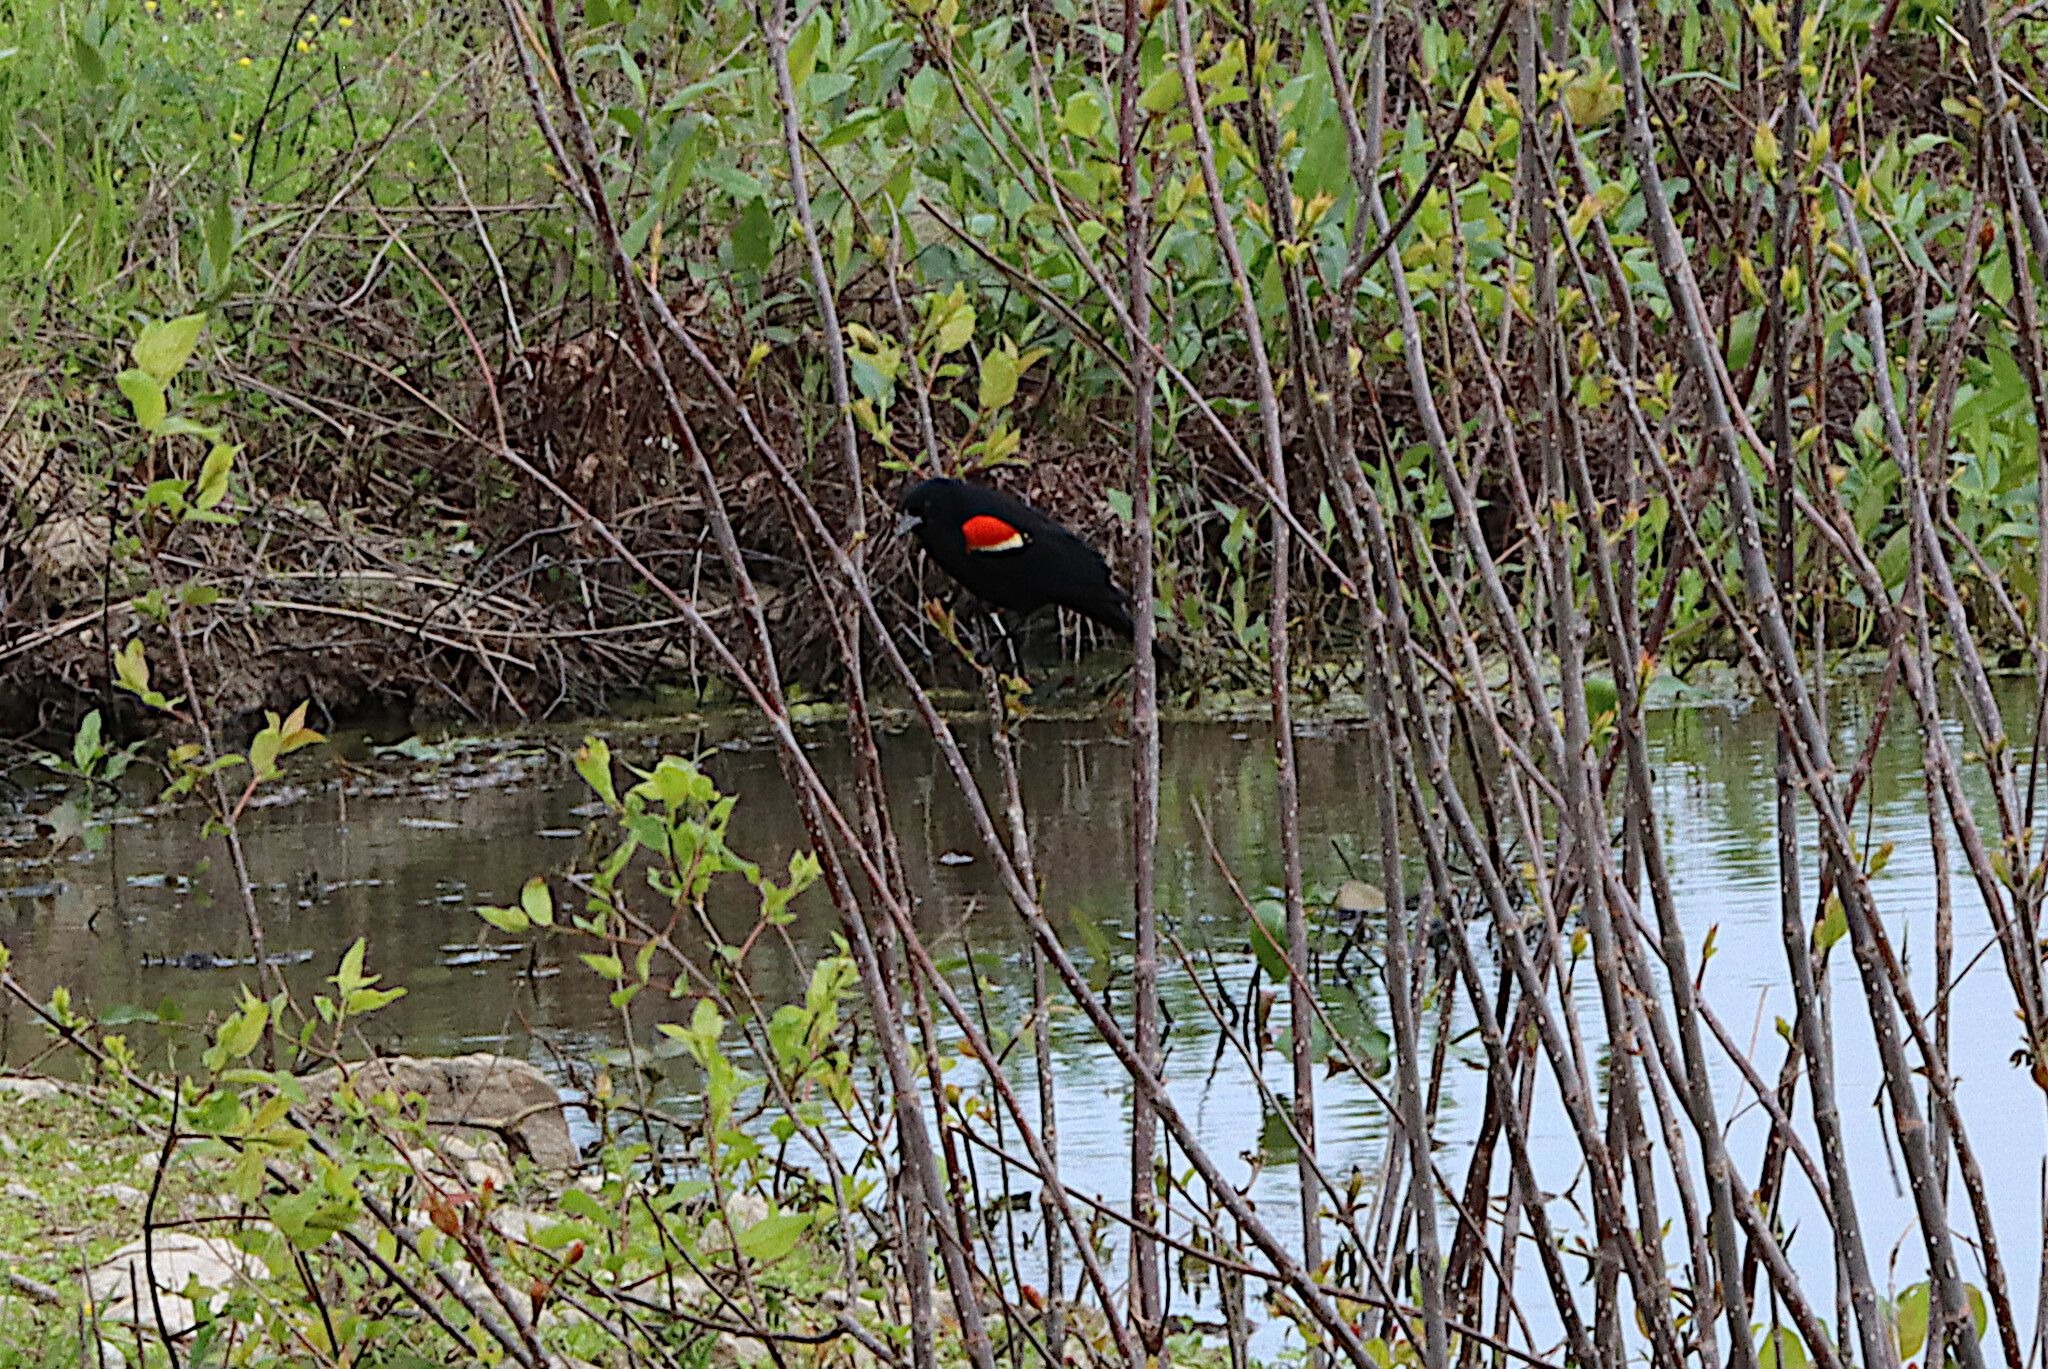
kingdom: Animalia
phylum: Chordata
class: Aves
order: Passeriformes
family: Icteridae
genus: Agelaius
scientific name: Agelaius phoeniceus
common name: Red-winged blackbird
